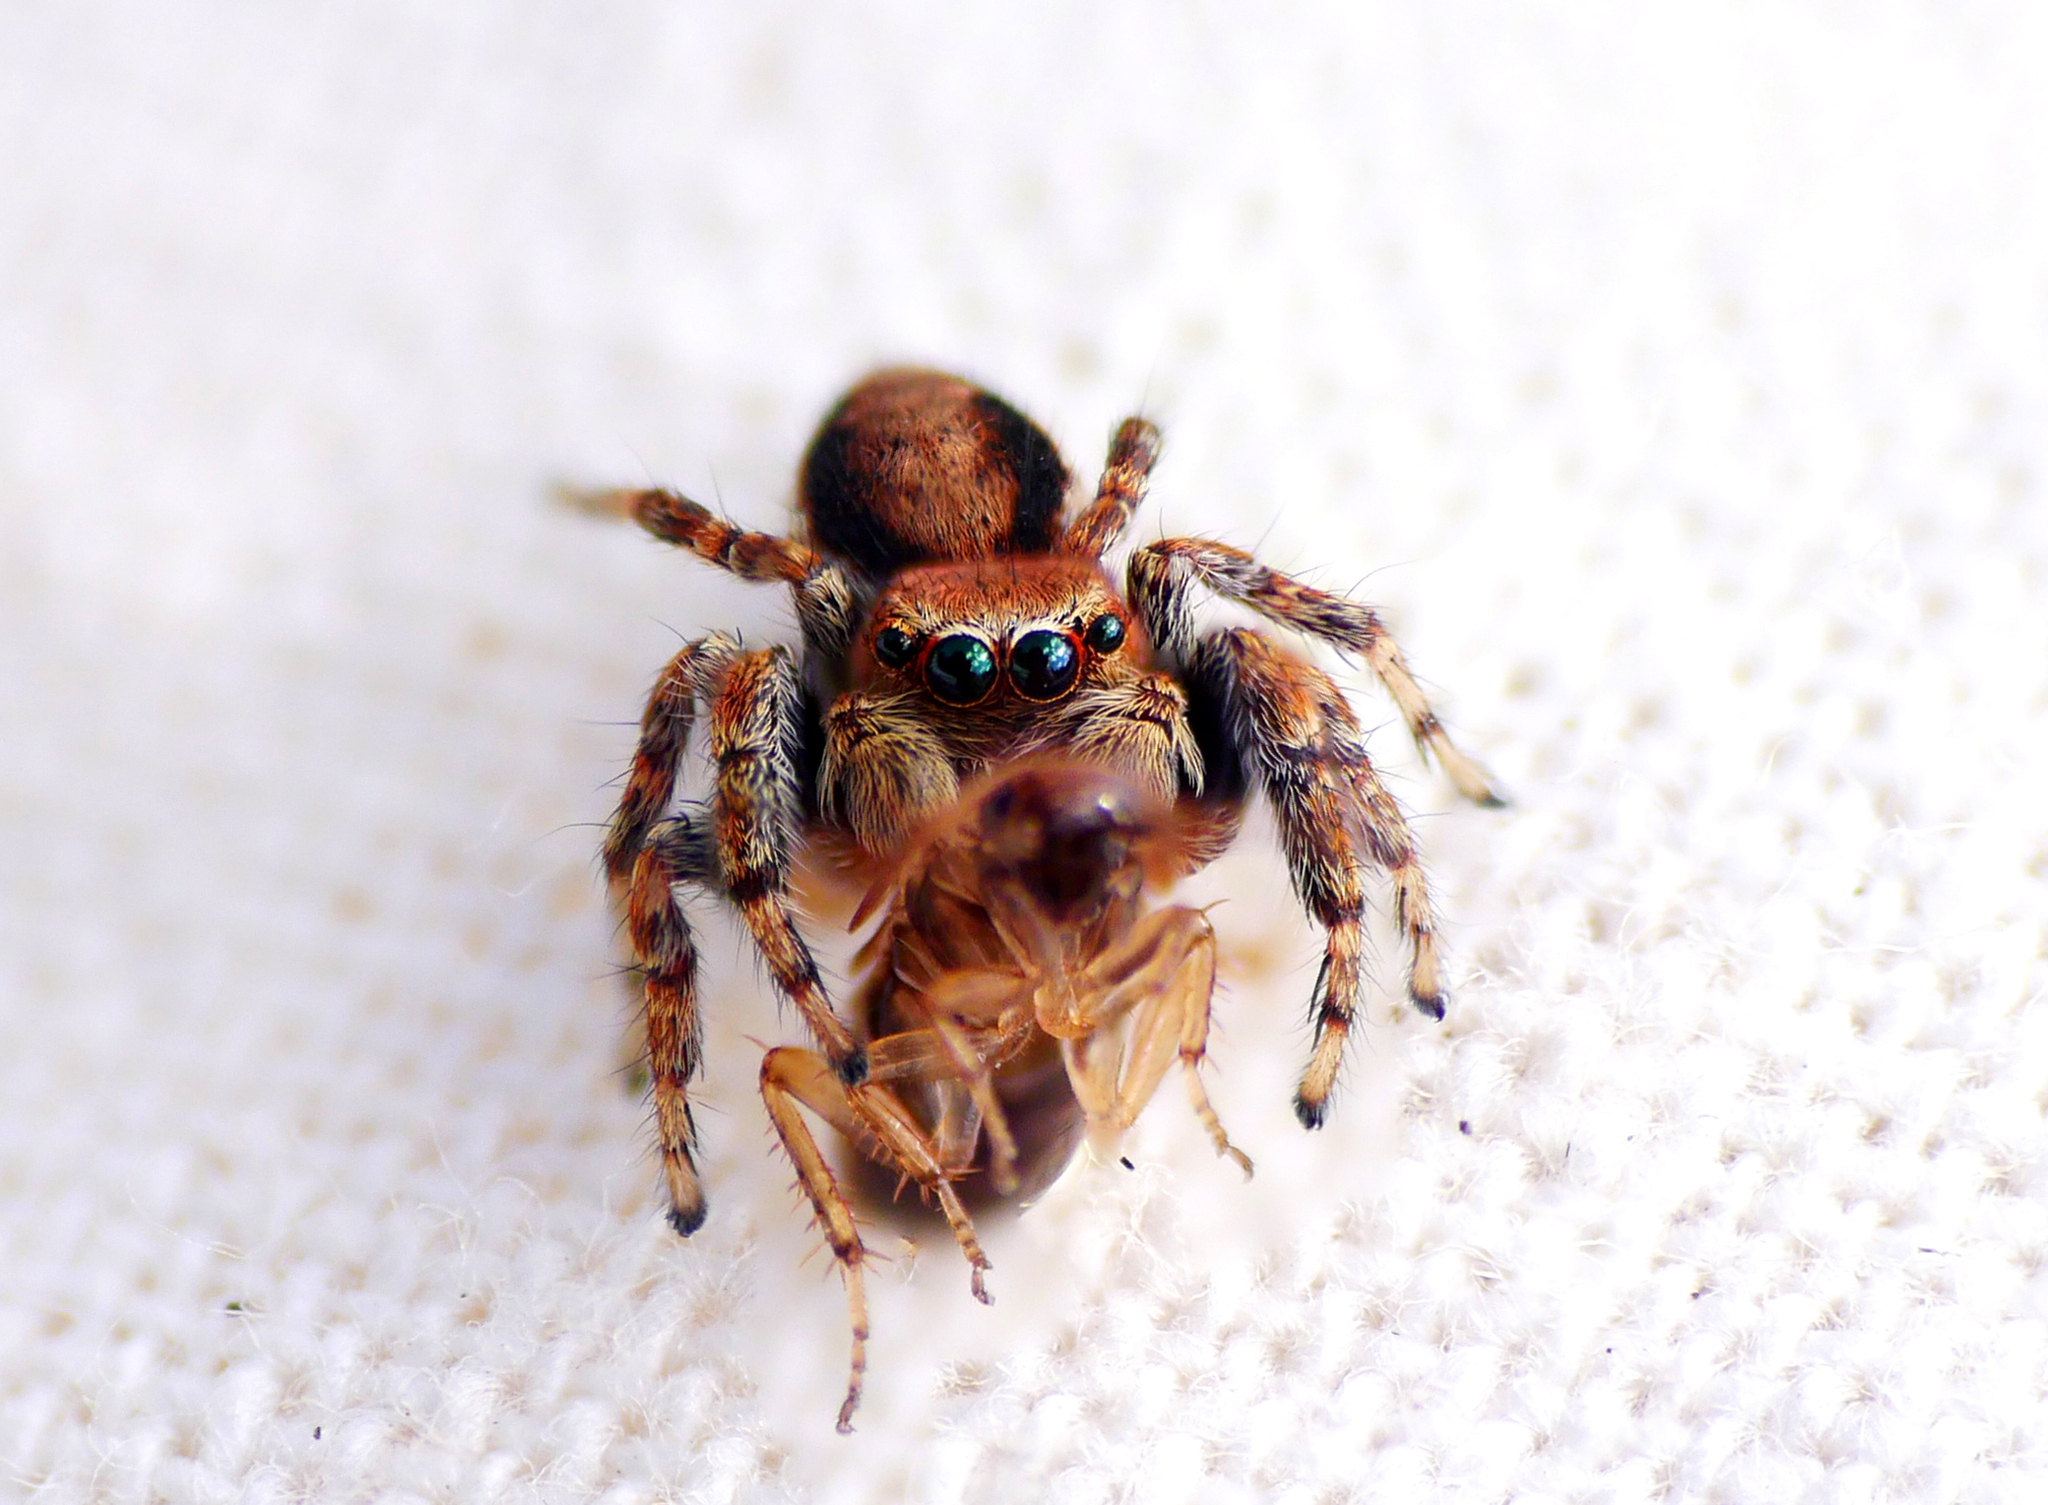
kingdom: Animalia
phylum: Arthropoda
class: Arachnida
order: Araneae
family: Salticidae
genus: Evarcha
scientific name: Evarcha falcata
